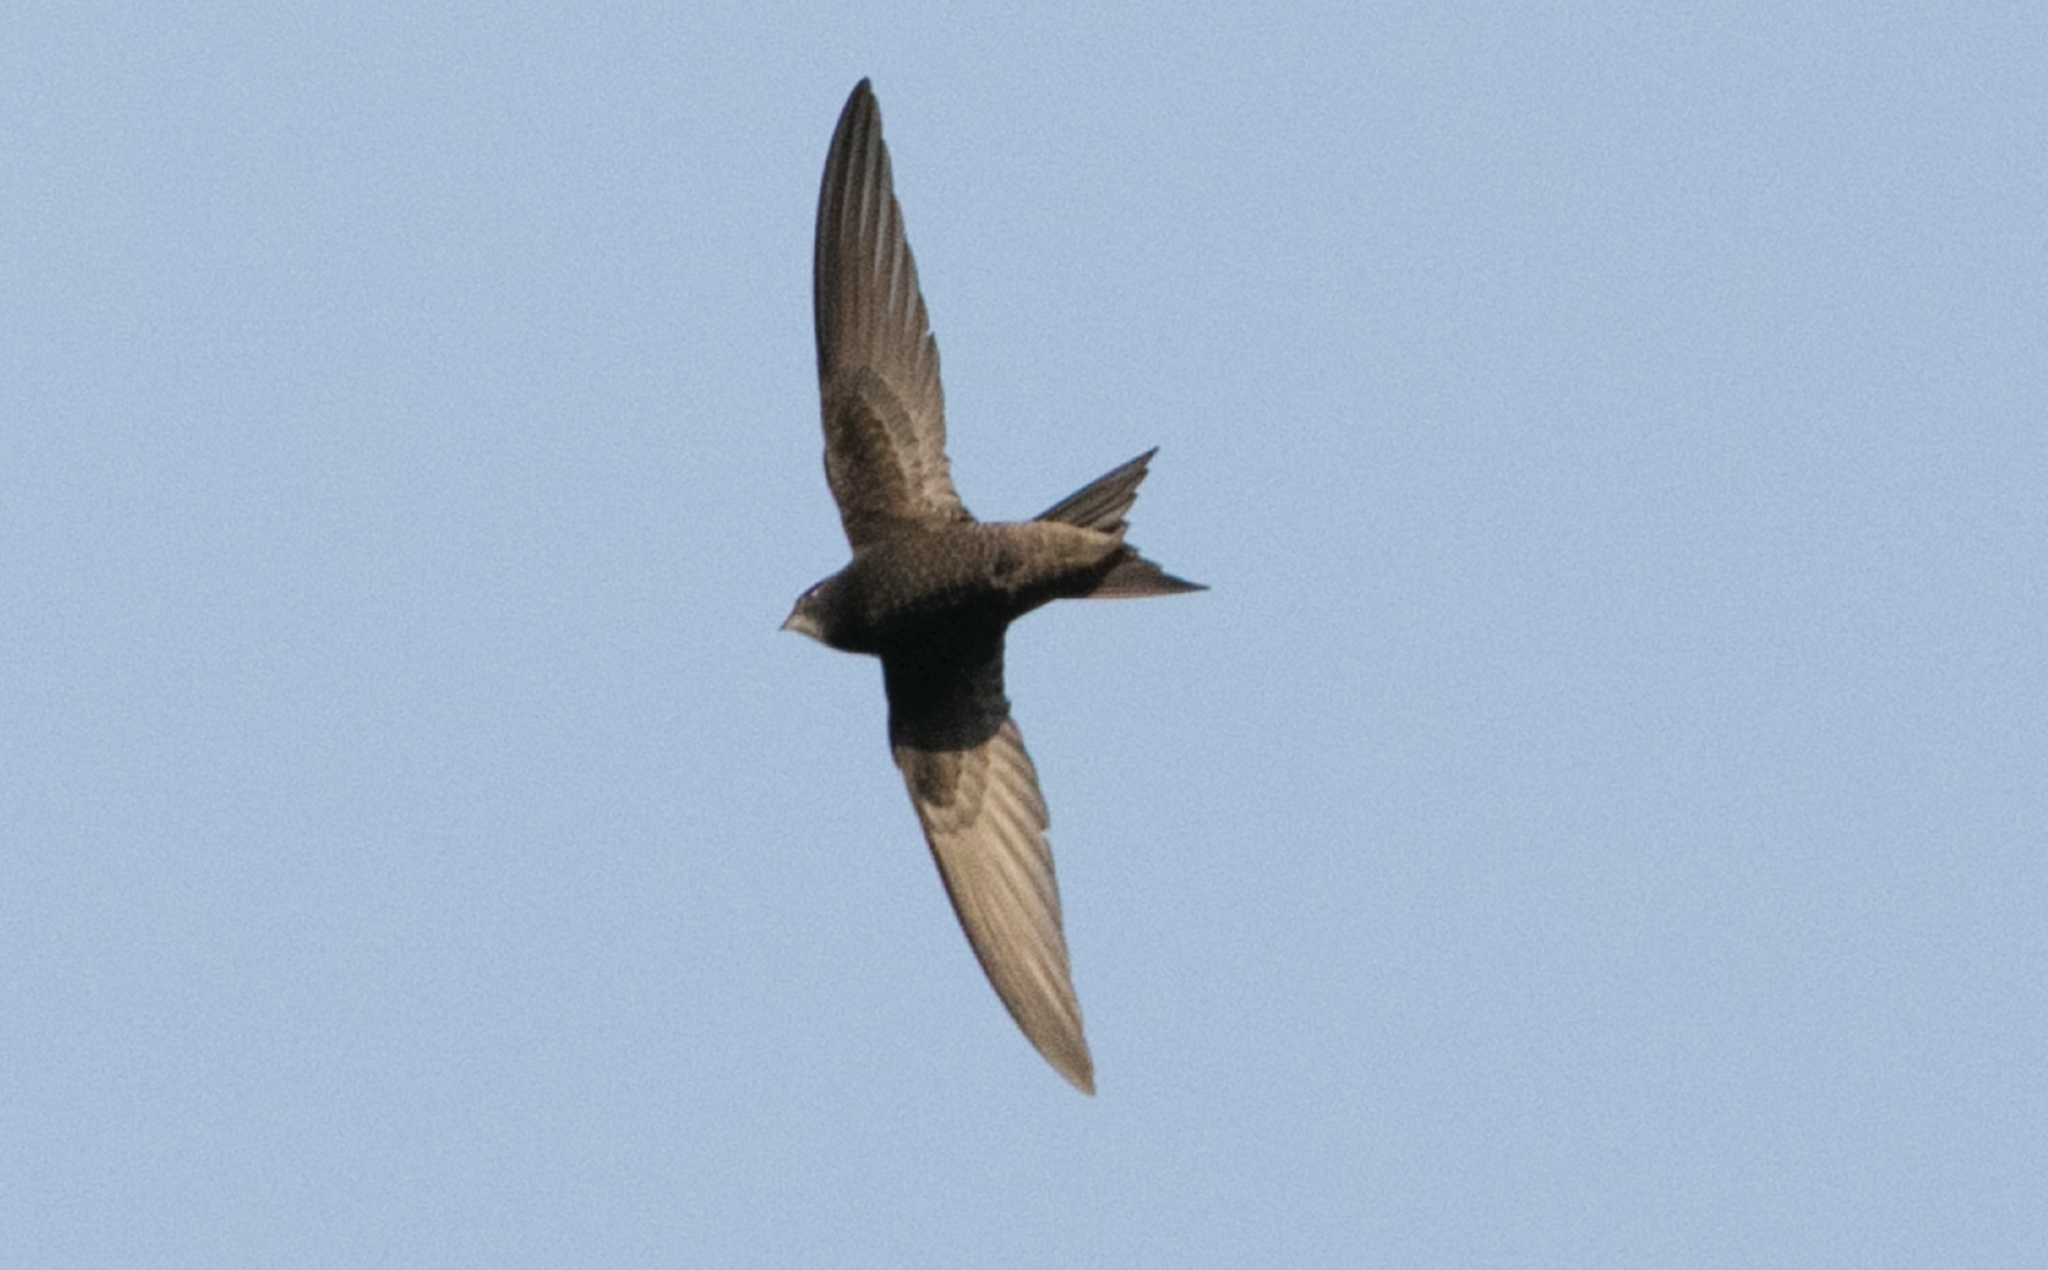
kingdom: Animalia
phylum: Chordata
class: Aves
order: Apodiformes
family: Apodidae
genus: Apus
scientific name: Apus apus
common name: Common swift
